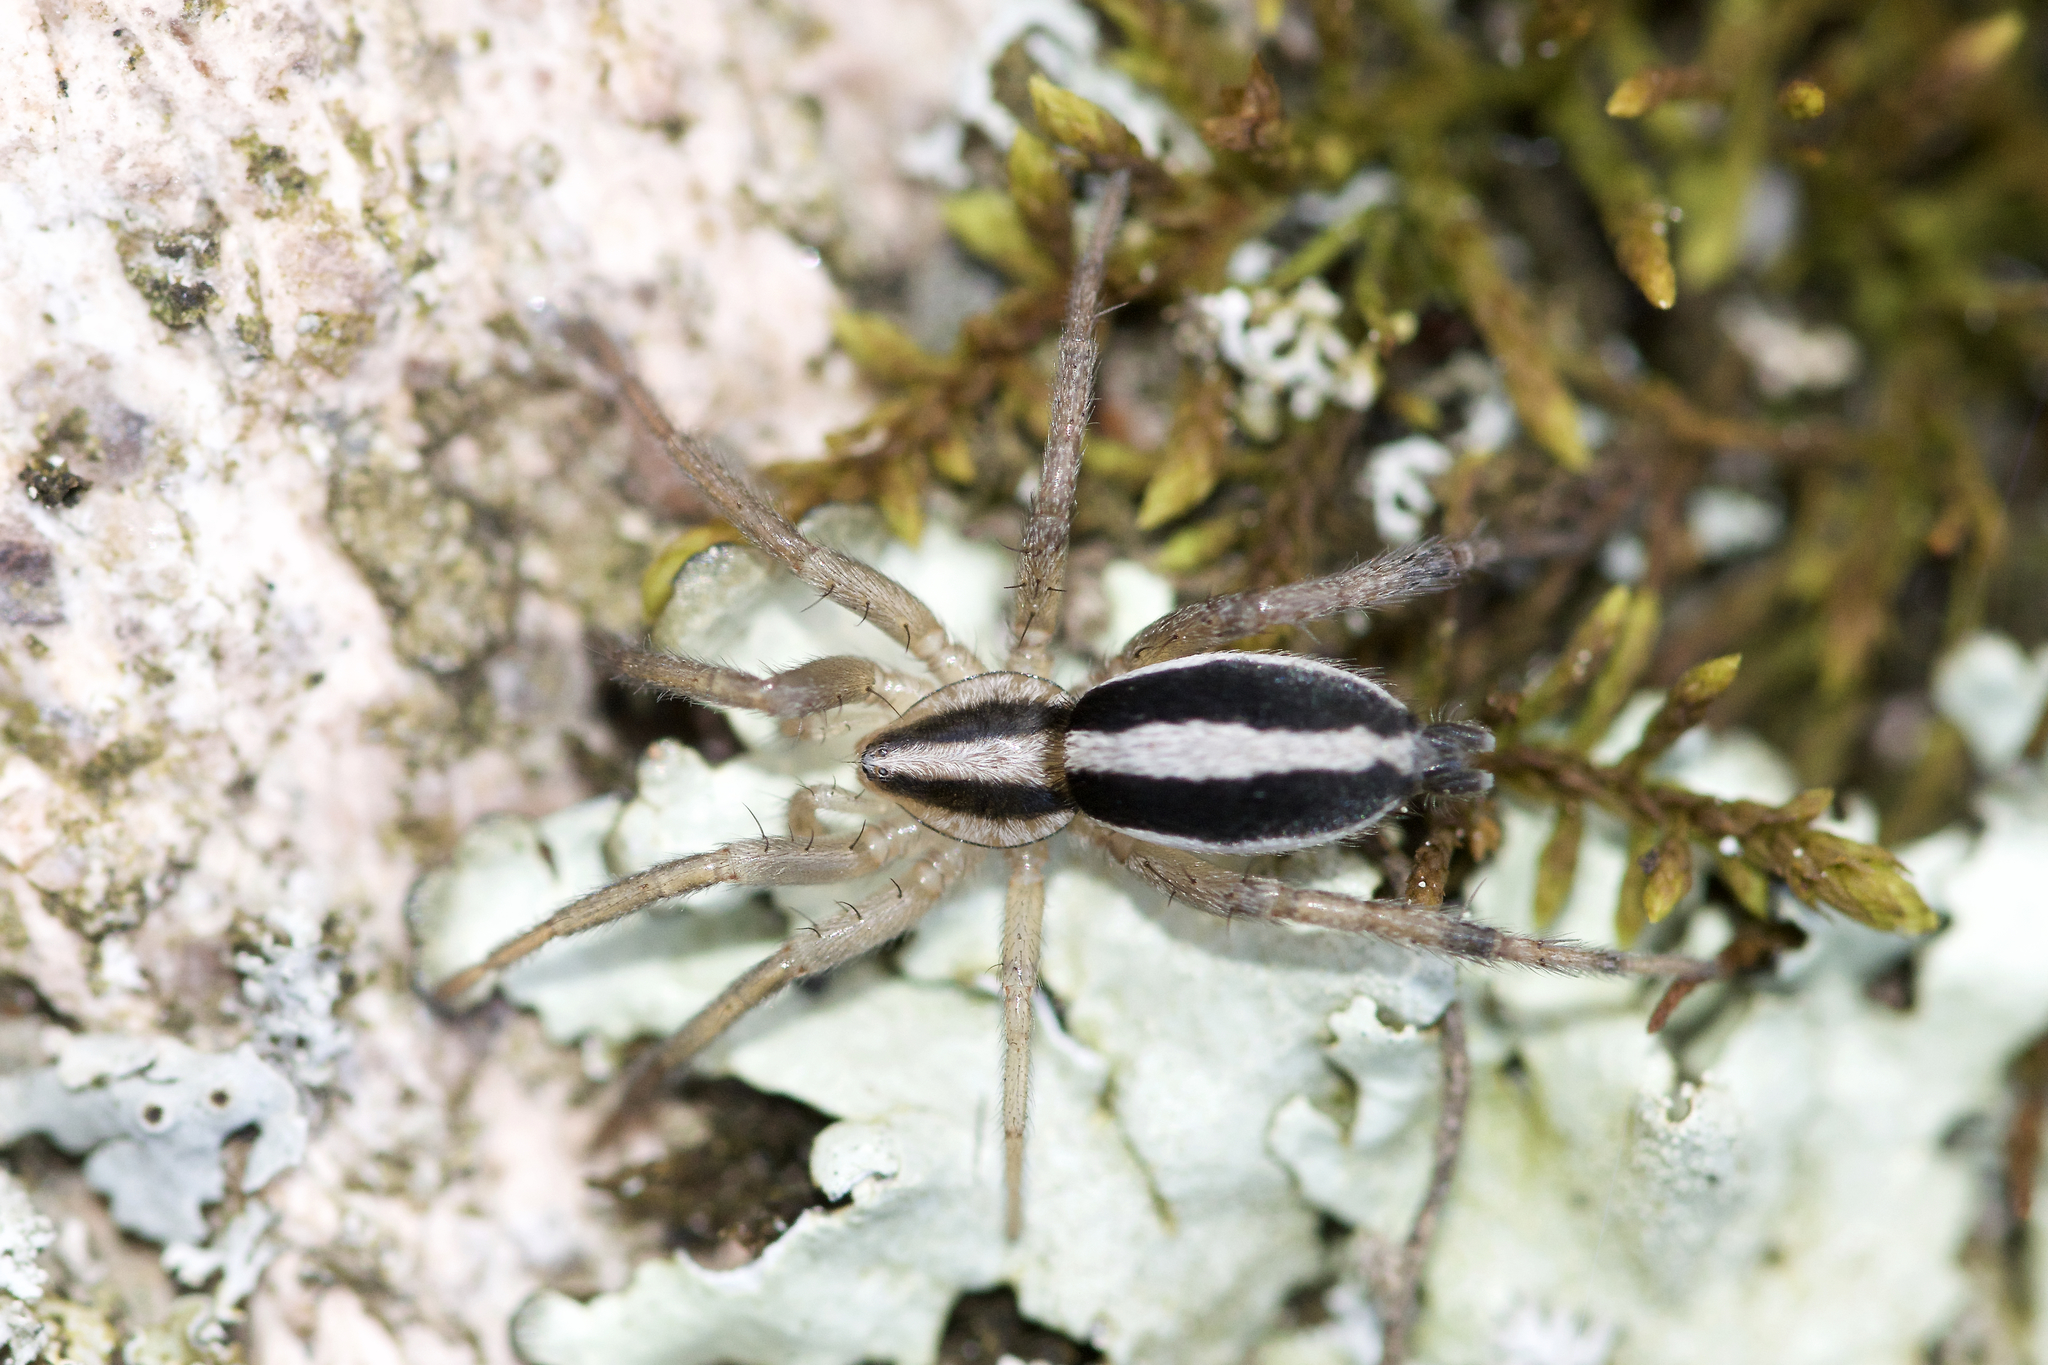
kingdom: Animalia
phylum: Arthropoda
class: Arachnida
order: Araneae
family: Gnaphosidae
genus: Cesonia
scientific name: Cesonia bilineata
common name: Two-lined stealthy ground spider
